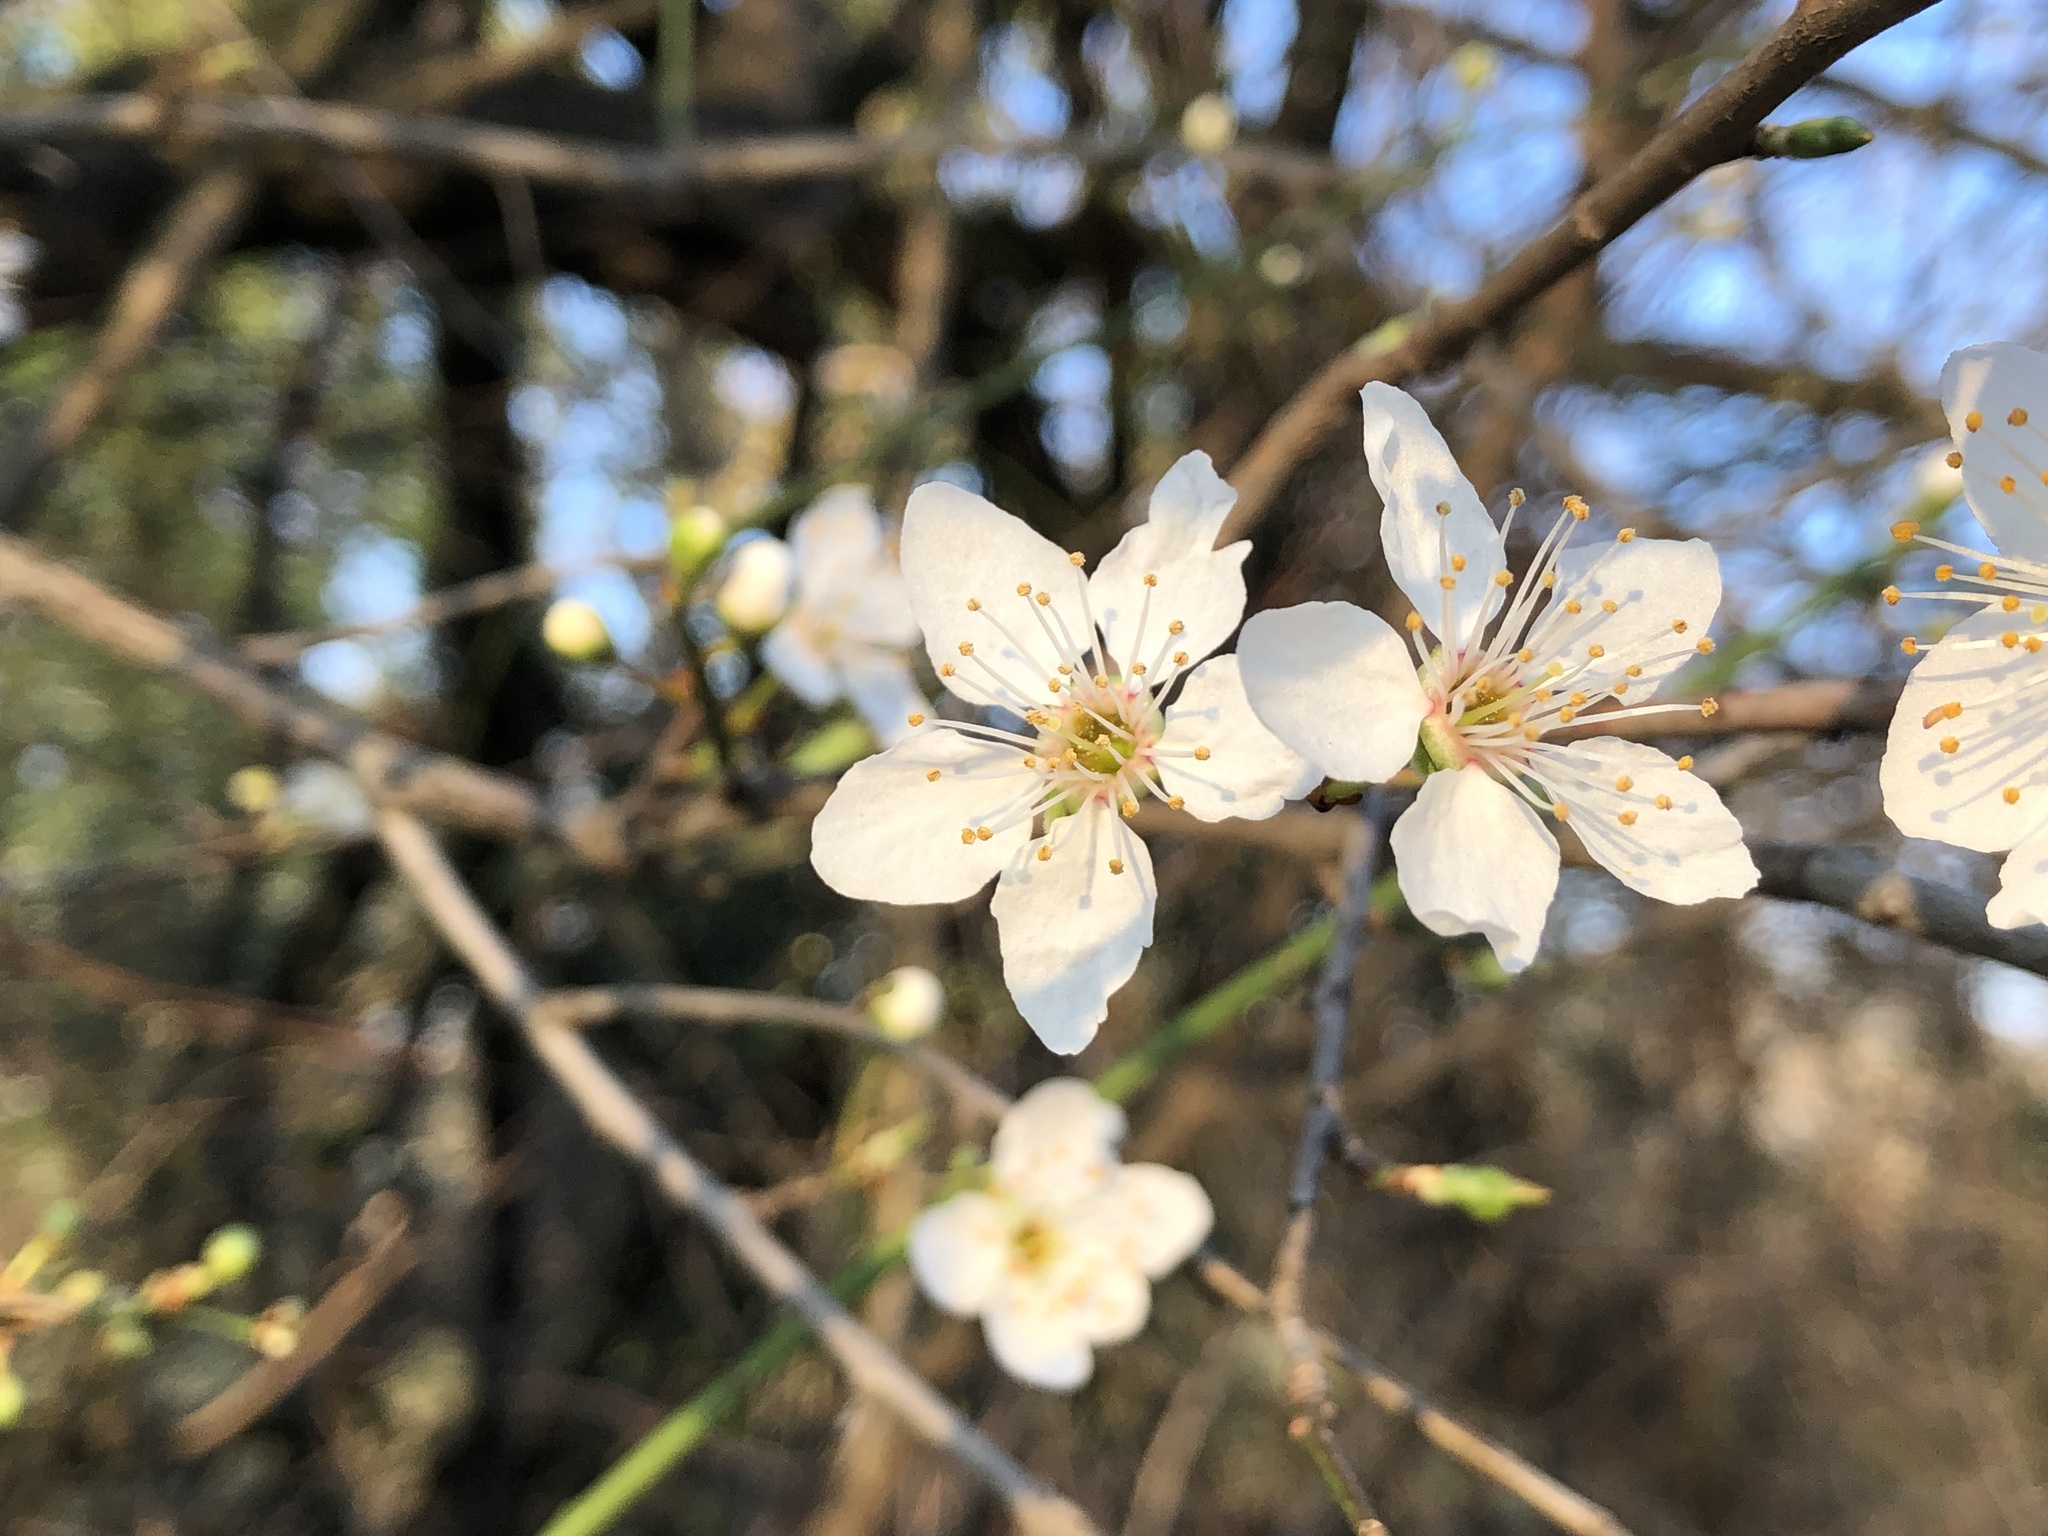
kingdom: Plantae
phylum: Tracheophyta
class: Magnoliopsida
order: Rosales
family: Rosaceae
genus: Prunus
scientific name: Prunus cerasifera
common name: Cherry plum
